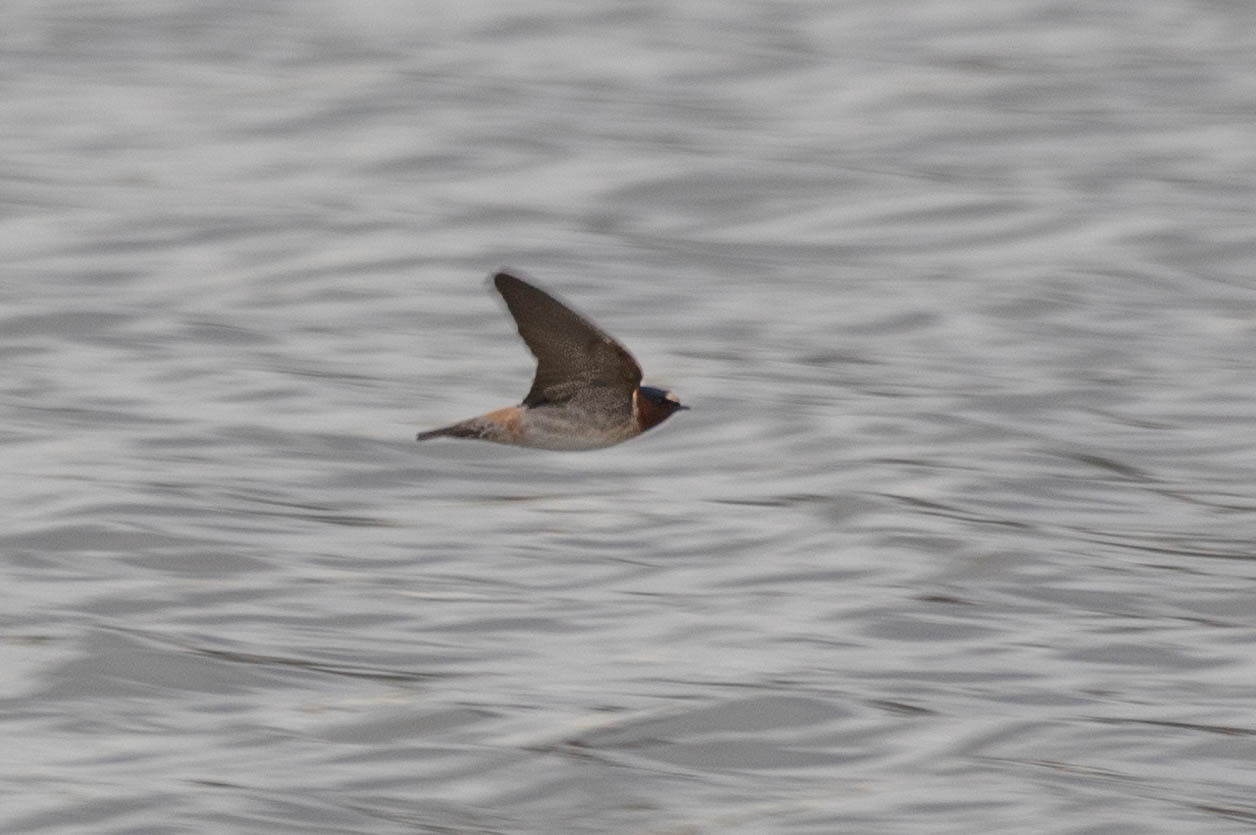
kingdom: Animalia
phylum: Chordata
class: Aves
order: Passeriformes
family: Hirundinidae
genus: Petrochelidon
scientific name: Petrochelidon pyrrhonota
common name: American cliff swallow
